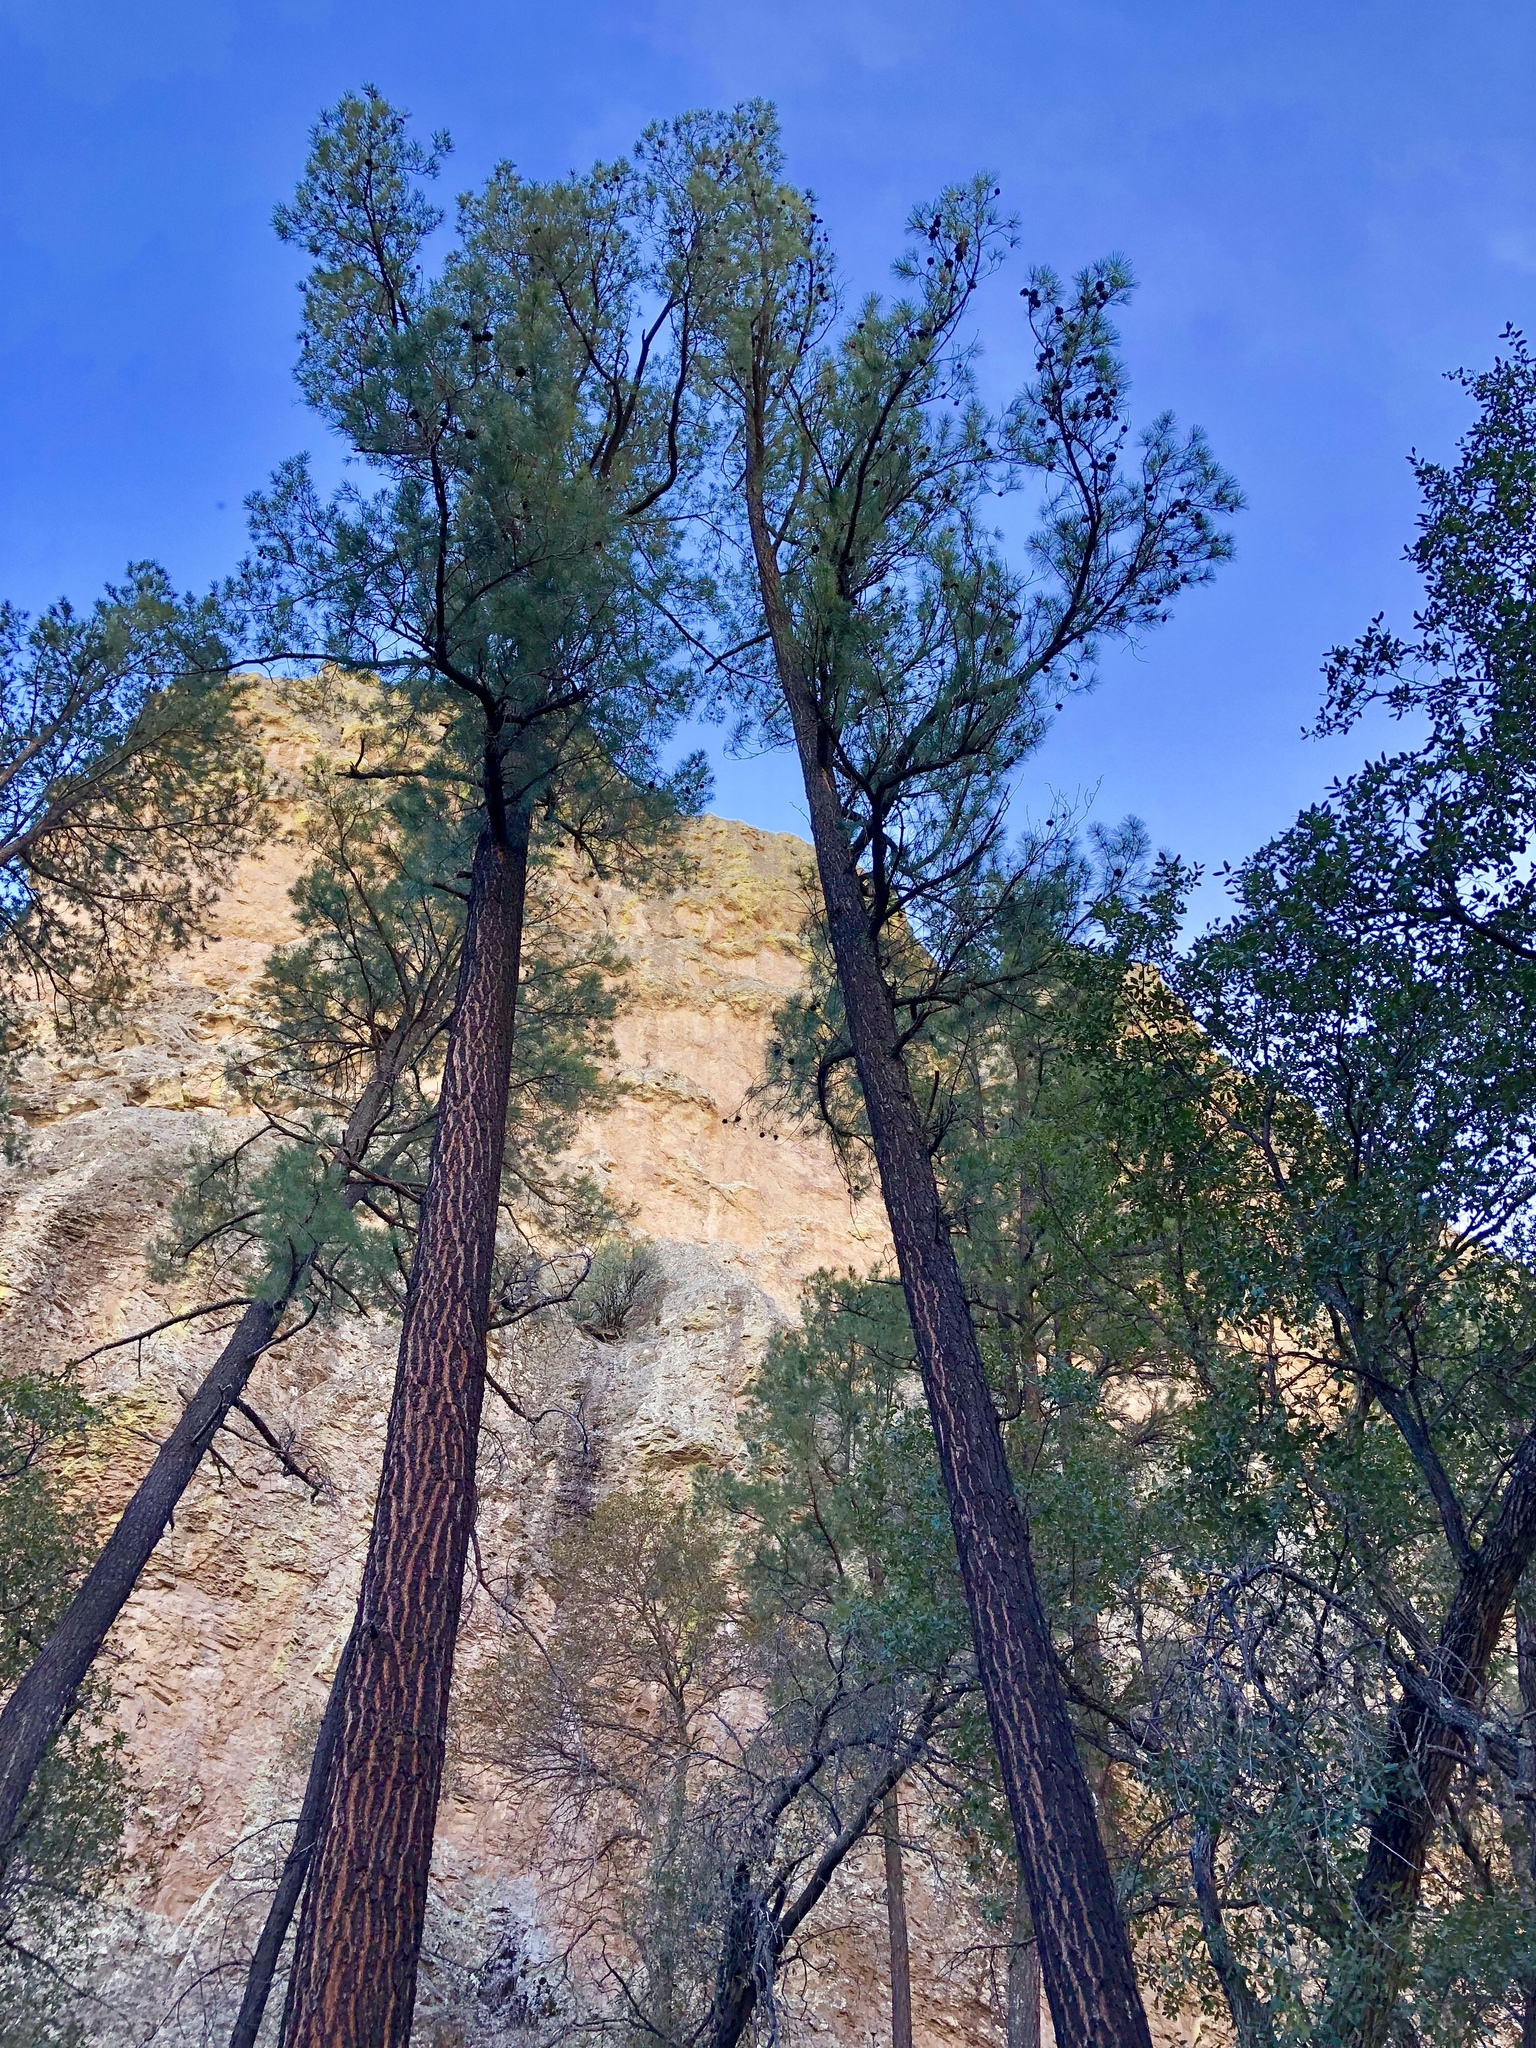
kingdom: Plantae
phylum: Tracheophyta
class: Pinopsida
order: Pinales
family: Pinaceae
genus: Pinus
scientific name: Pinus leiophylla
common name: Chihuahua pine
